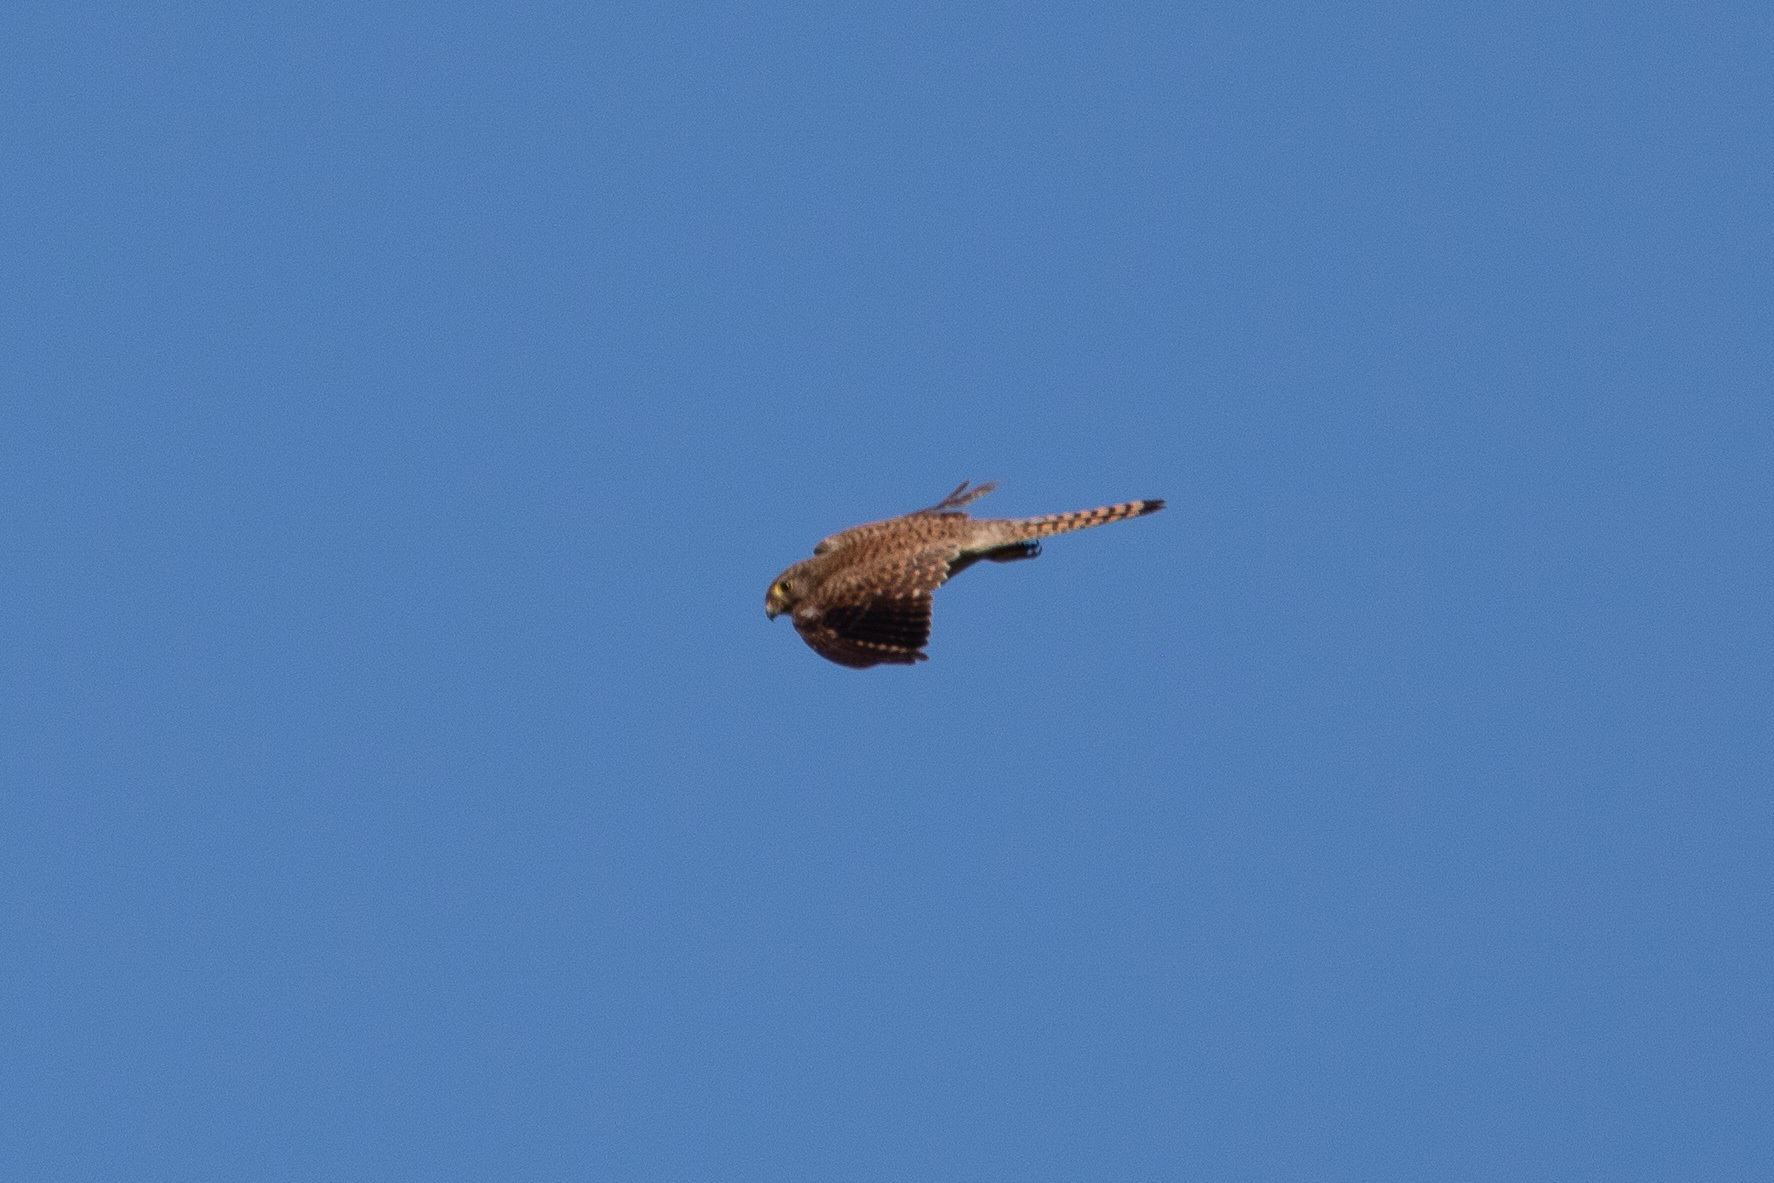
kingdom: Animalia
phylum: Chordata
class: Aves
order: Falconiformes
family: Falconidae
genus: Falco
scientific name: Falco tinnunculus
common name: Common kestrel
